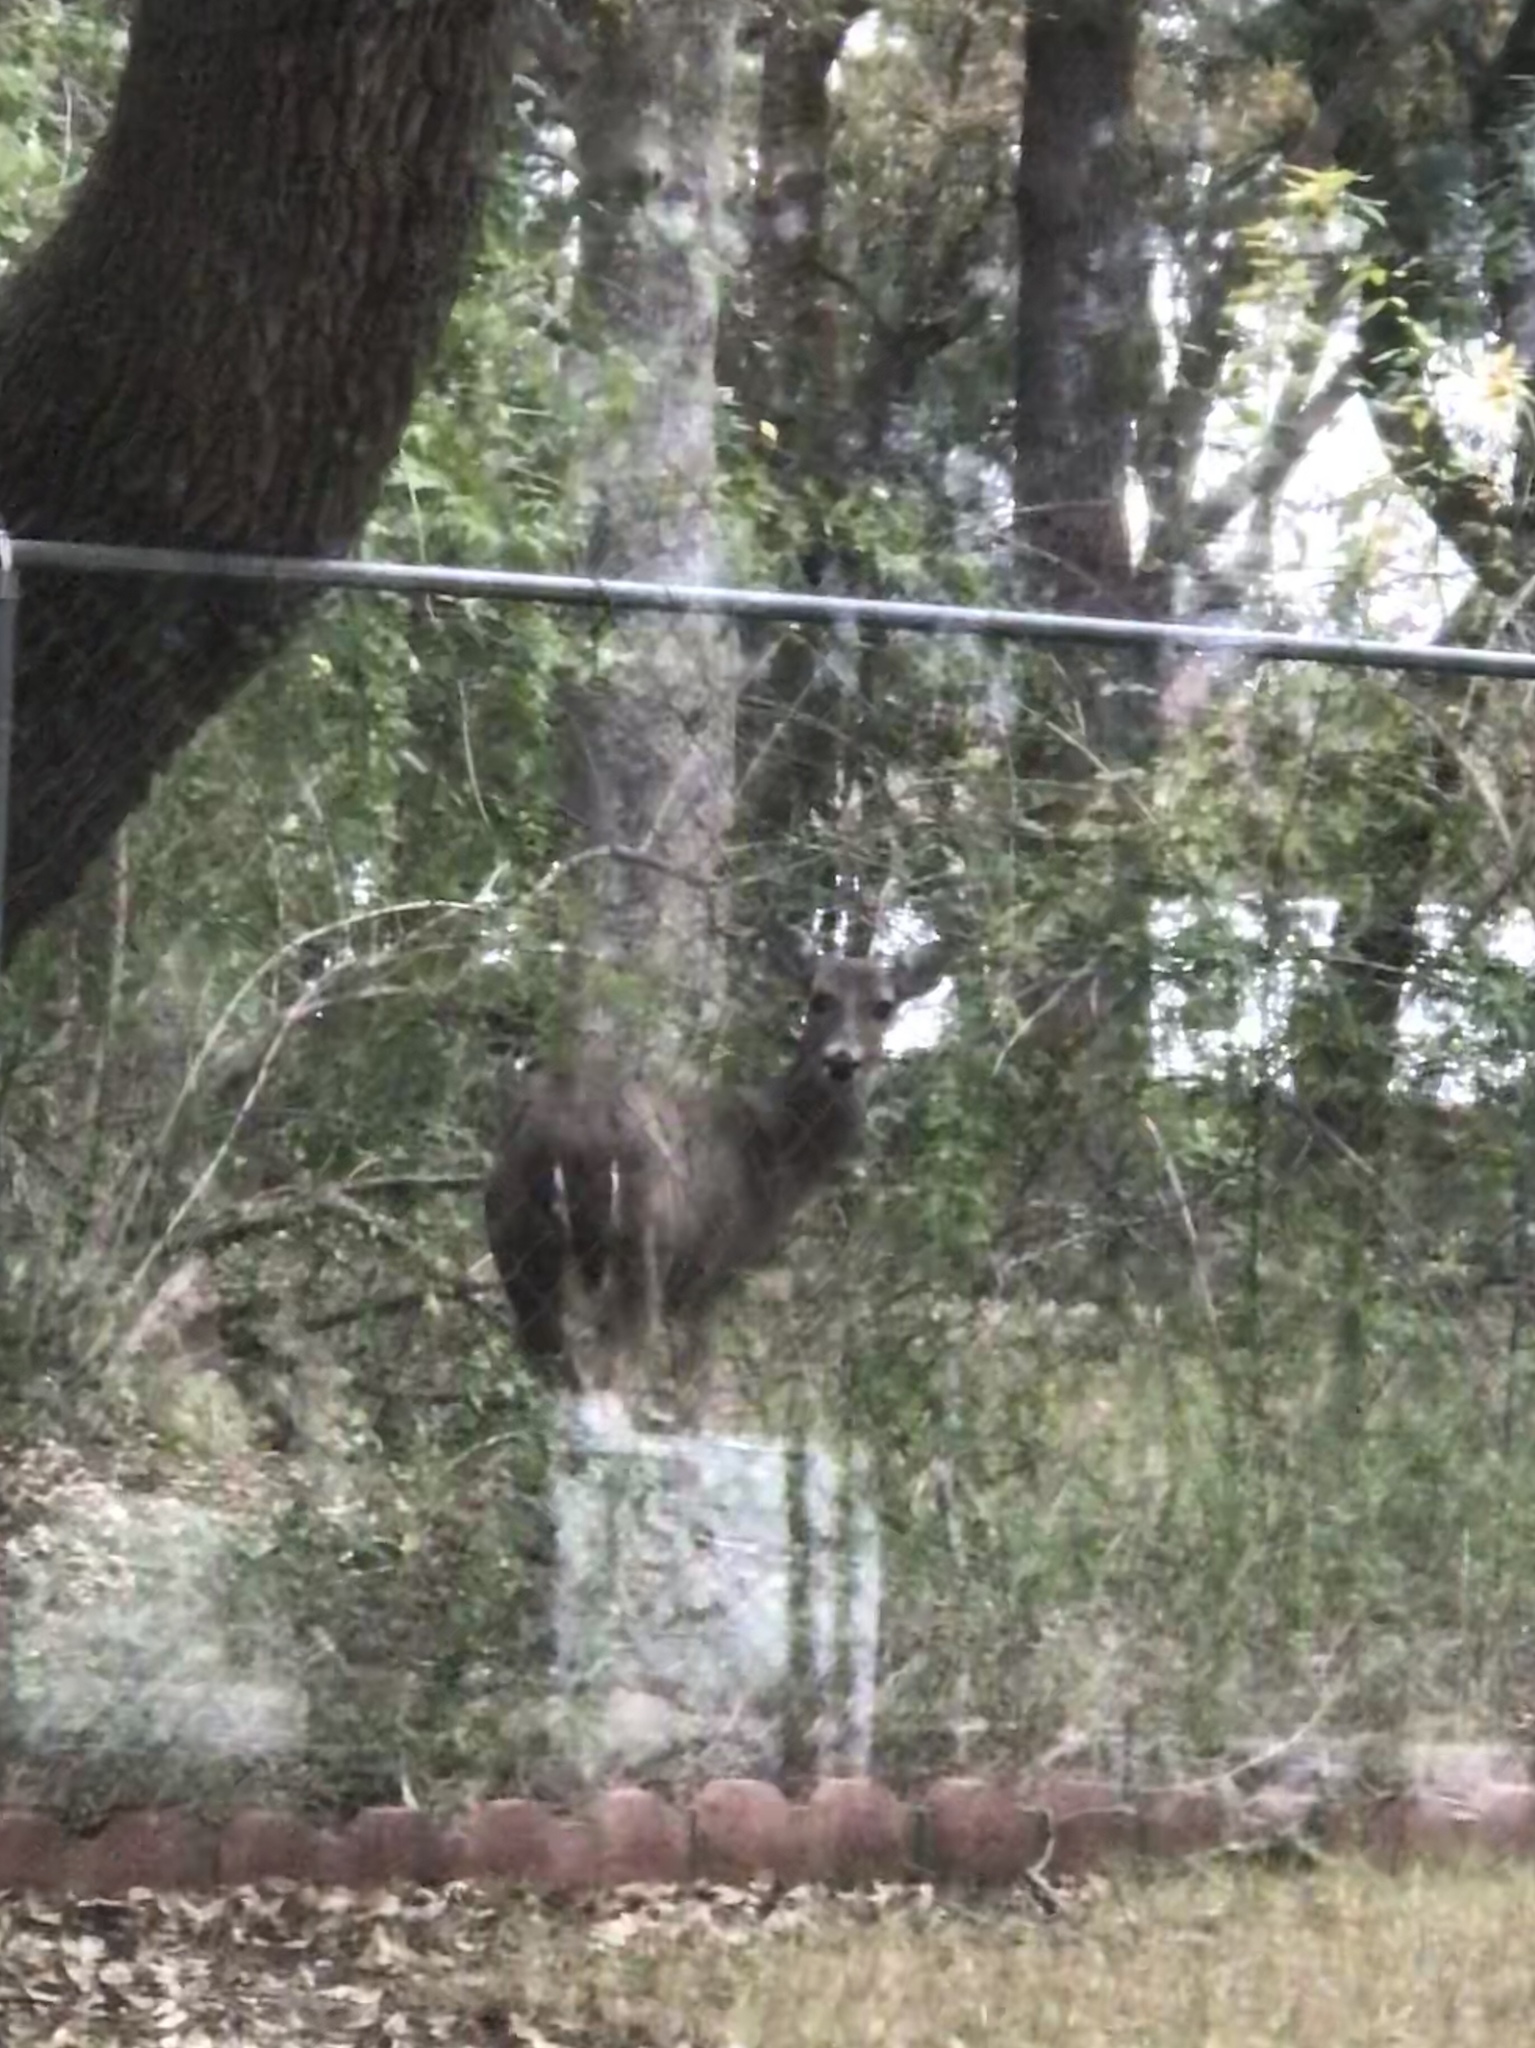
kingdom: Animalia
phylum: Chordata
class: Mammalia
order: Artiodactyla
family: Cervidae
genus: Odocoileus
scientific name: Odocoileus virginianus
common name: White-tailed deer
